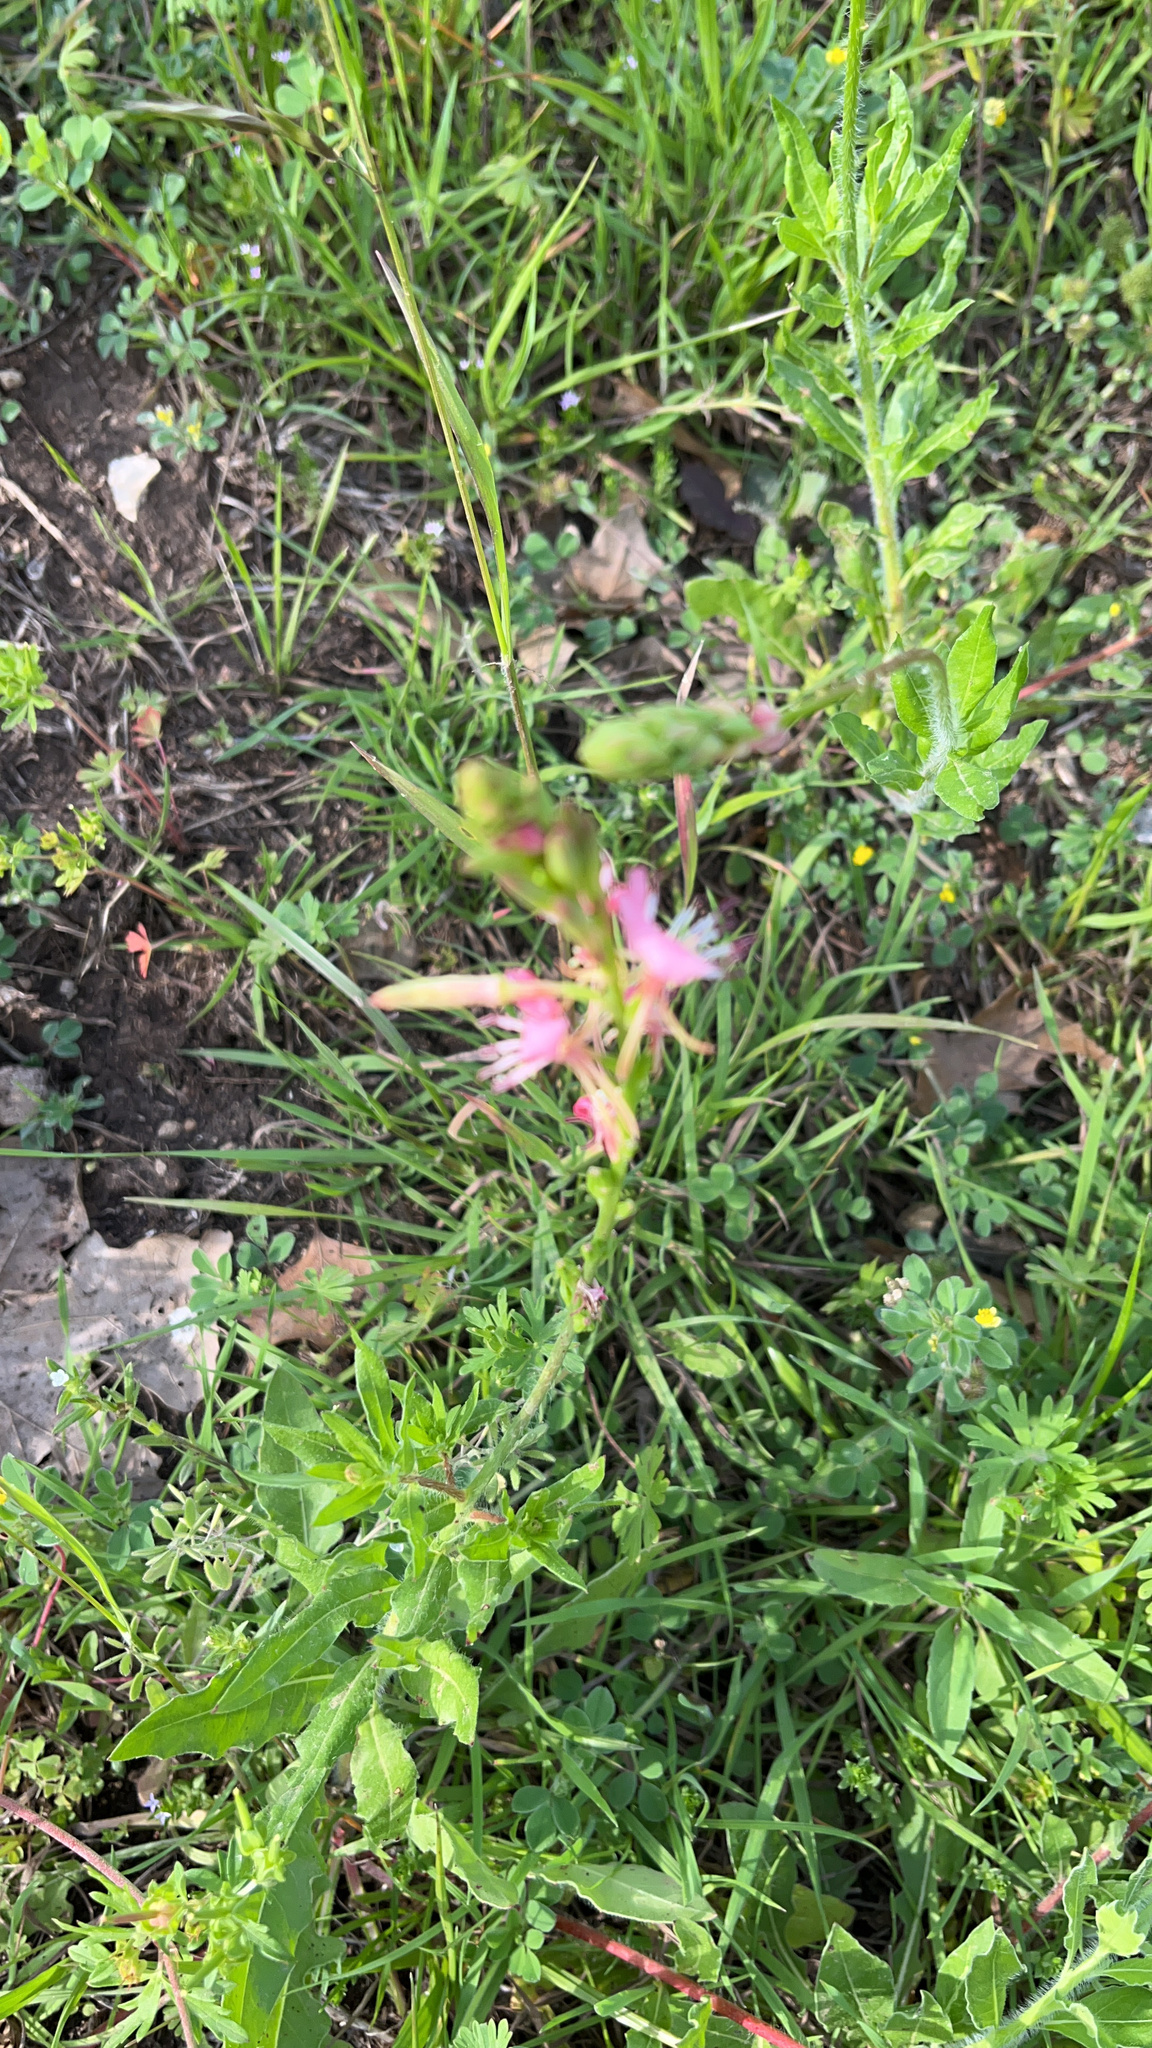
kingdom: Plantae
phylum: Tracheophyta
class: Magnoliopsida
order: Myrtales
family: Onagraceae
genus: Oenothera
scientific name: Oenothera suffulta
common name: Kisses
